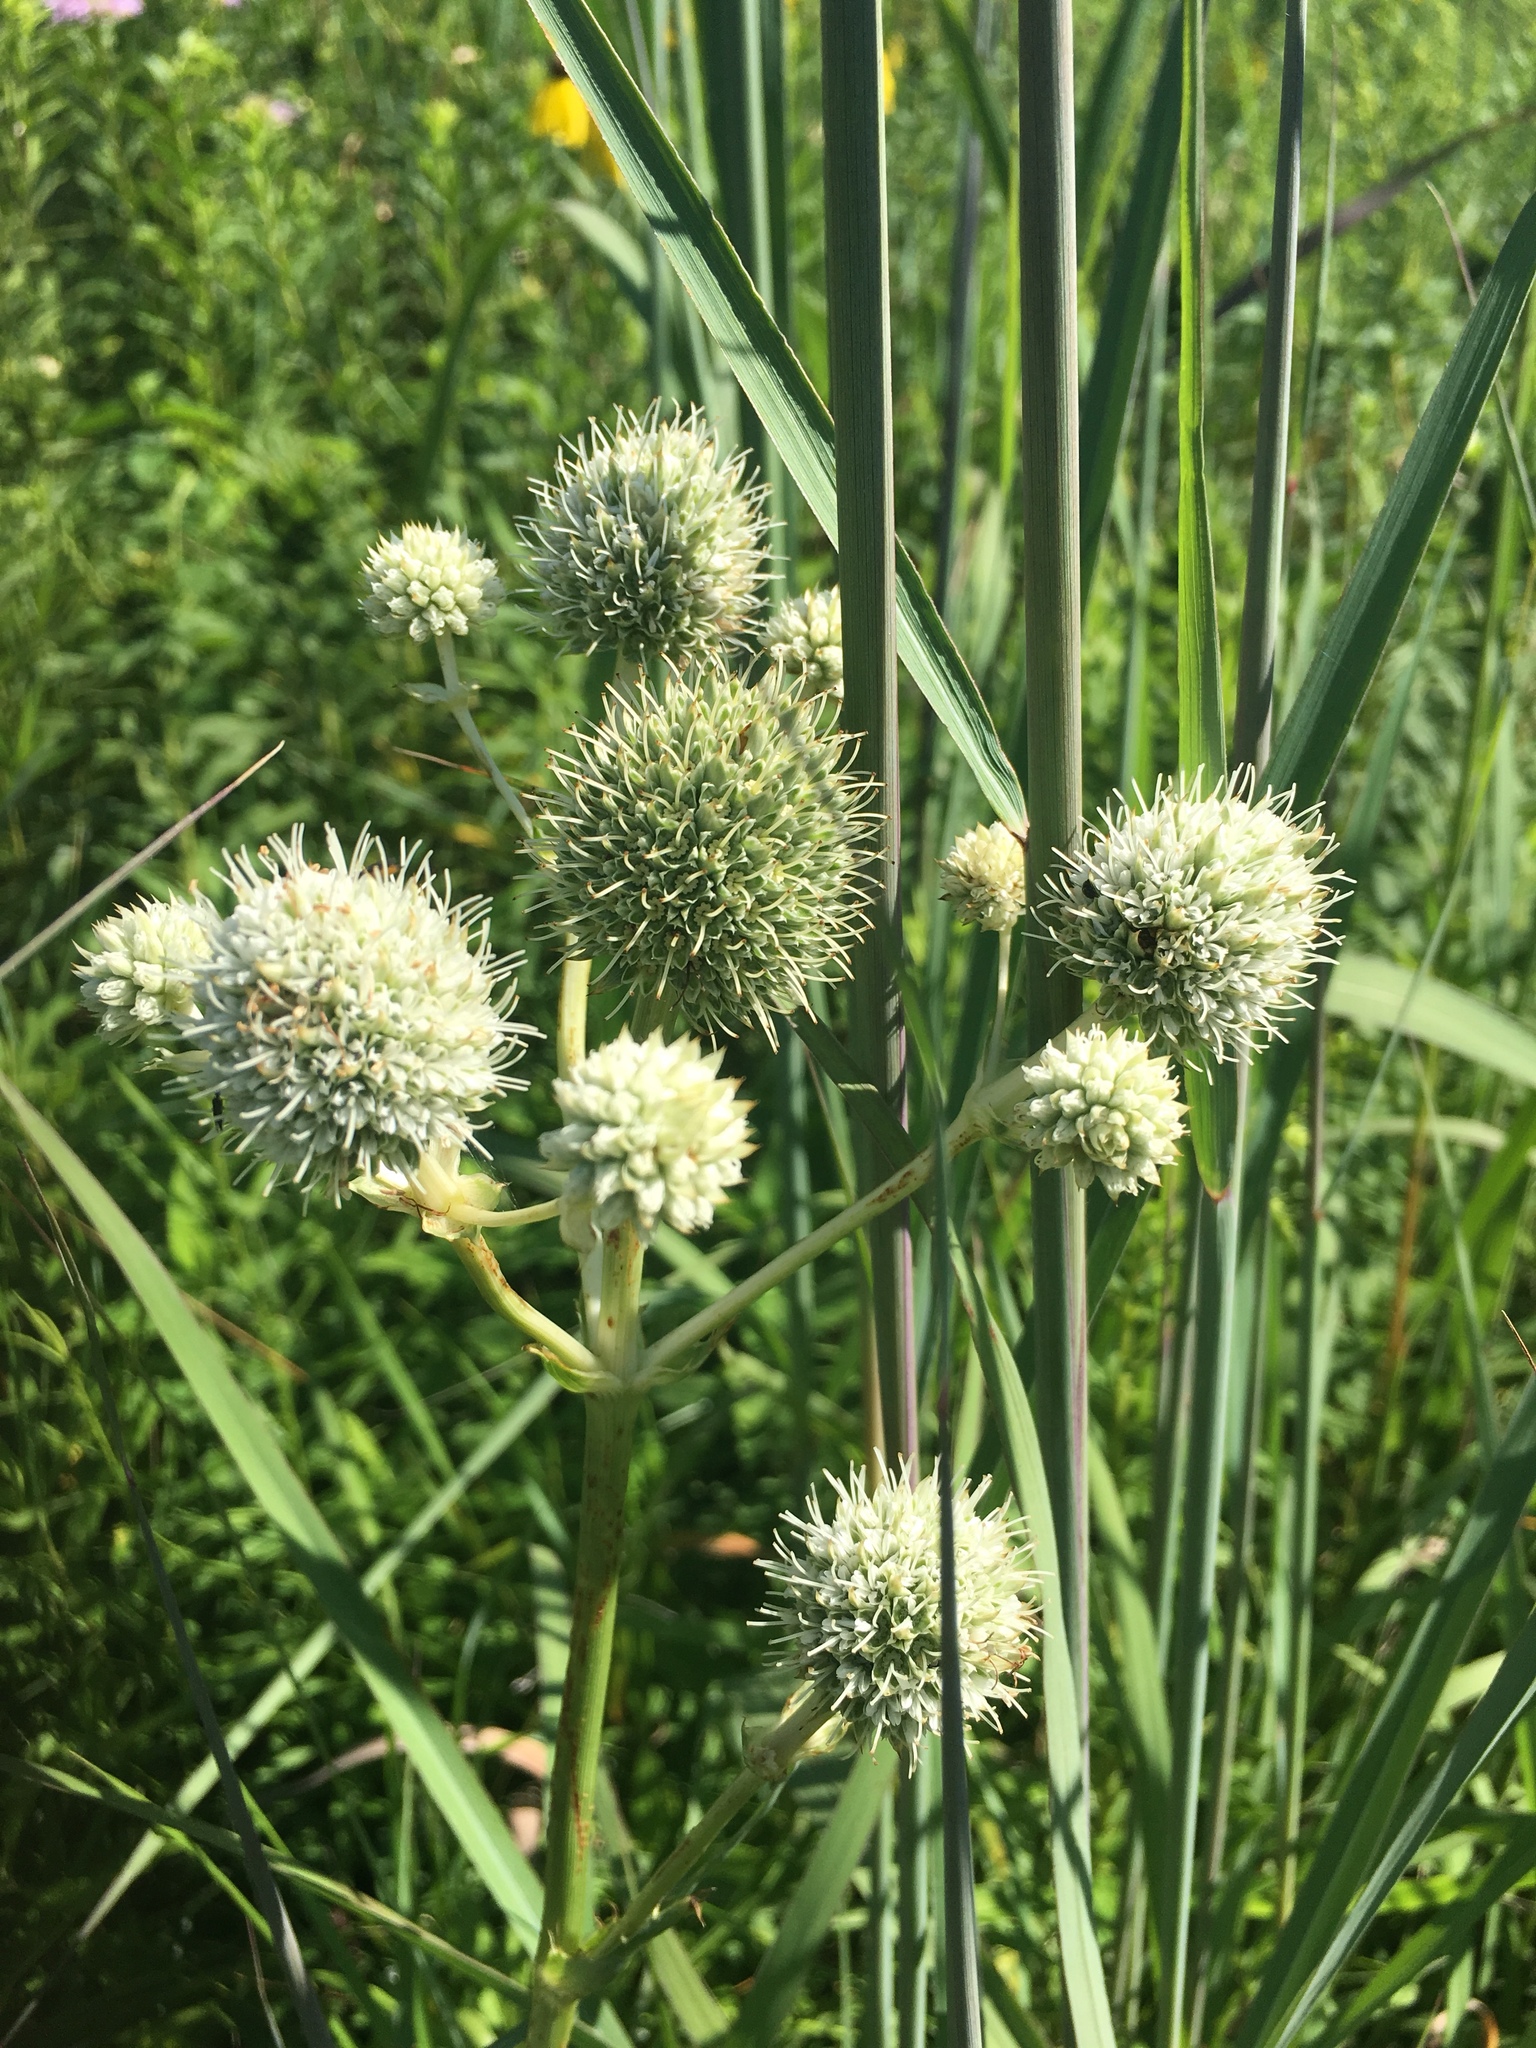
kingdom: Plantae
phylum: Tracheophyta
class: Magnoliopsida
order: Apiales
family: Apiaceae
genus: Eryngium
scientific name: Eryngium yuccifolium
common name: Button eryngo
